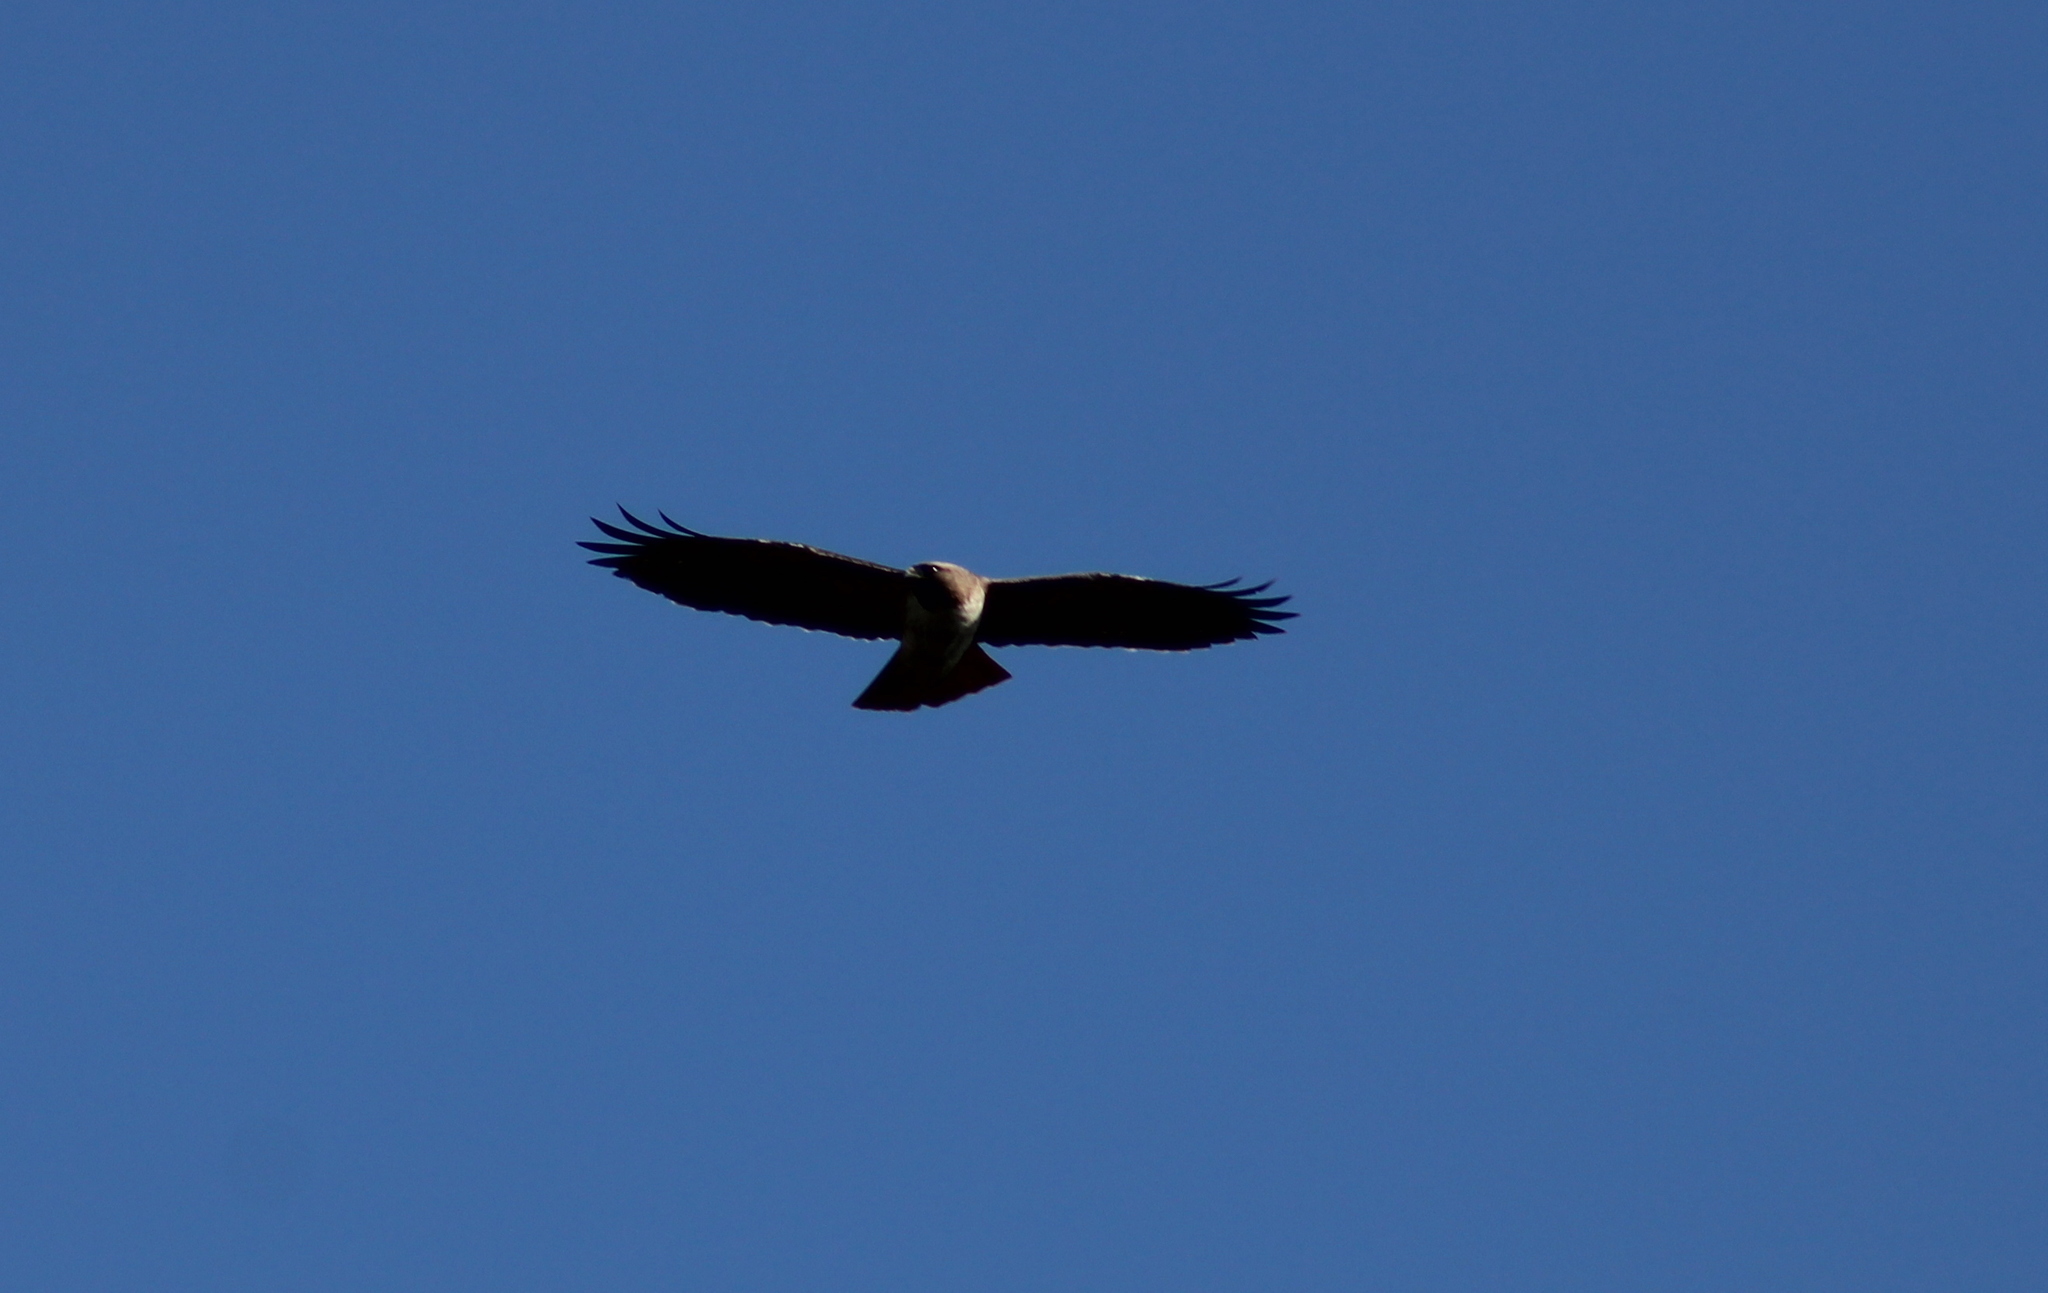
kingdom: Animalia
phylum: Chordata
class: Aves
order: Accipitriformes
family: Accipitridae
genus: Buteo
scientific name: Buteo jamaicensis
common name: Red-tailed hawk
